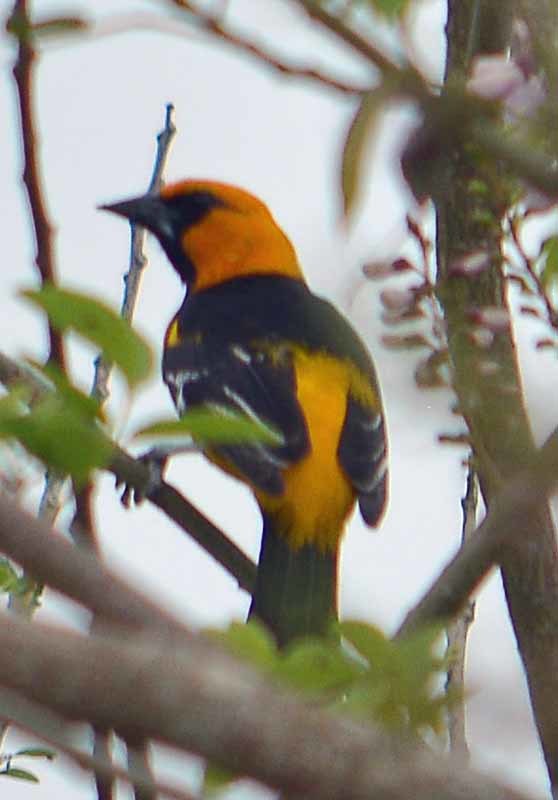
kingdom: Animalia
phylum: Chordata
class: Aves
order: Passeriformes
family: Icteridae
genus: Icterus
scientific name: Icterus gularis
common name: Altamira oriole
